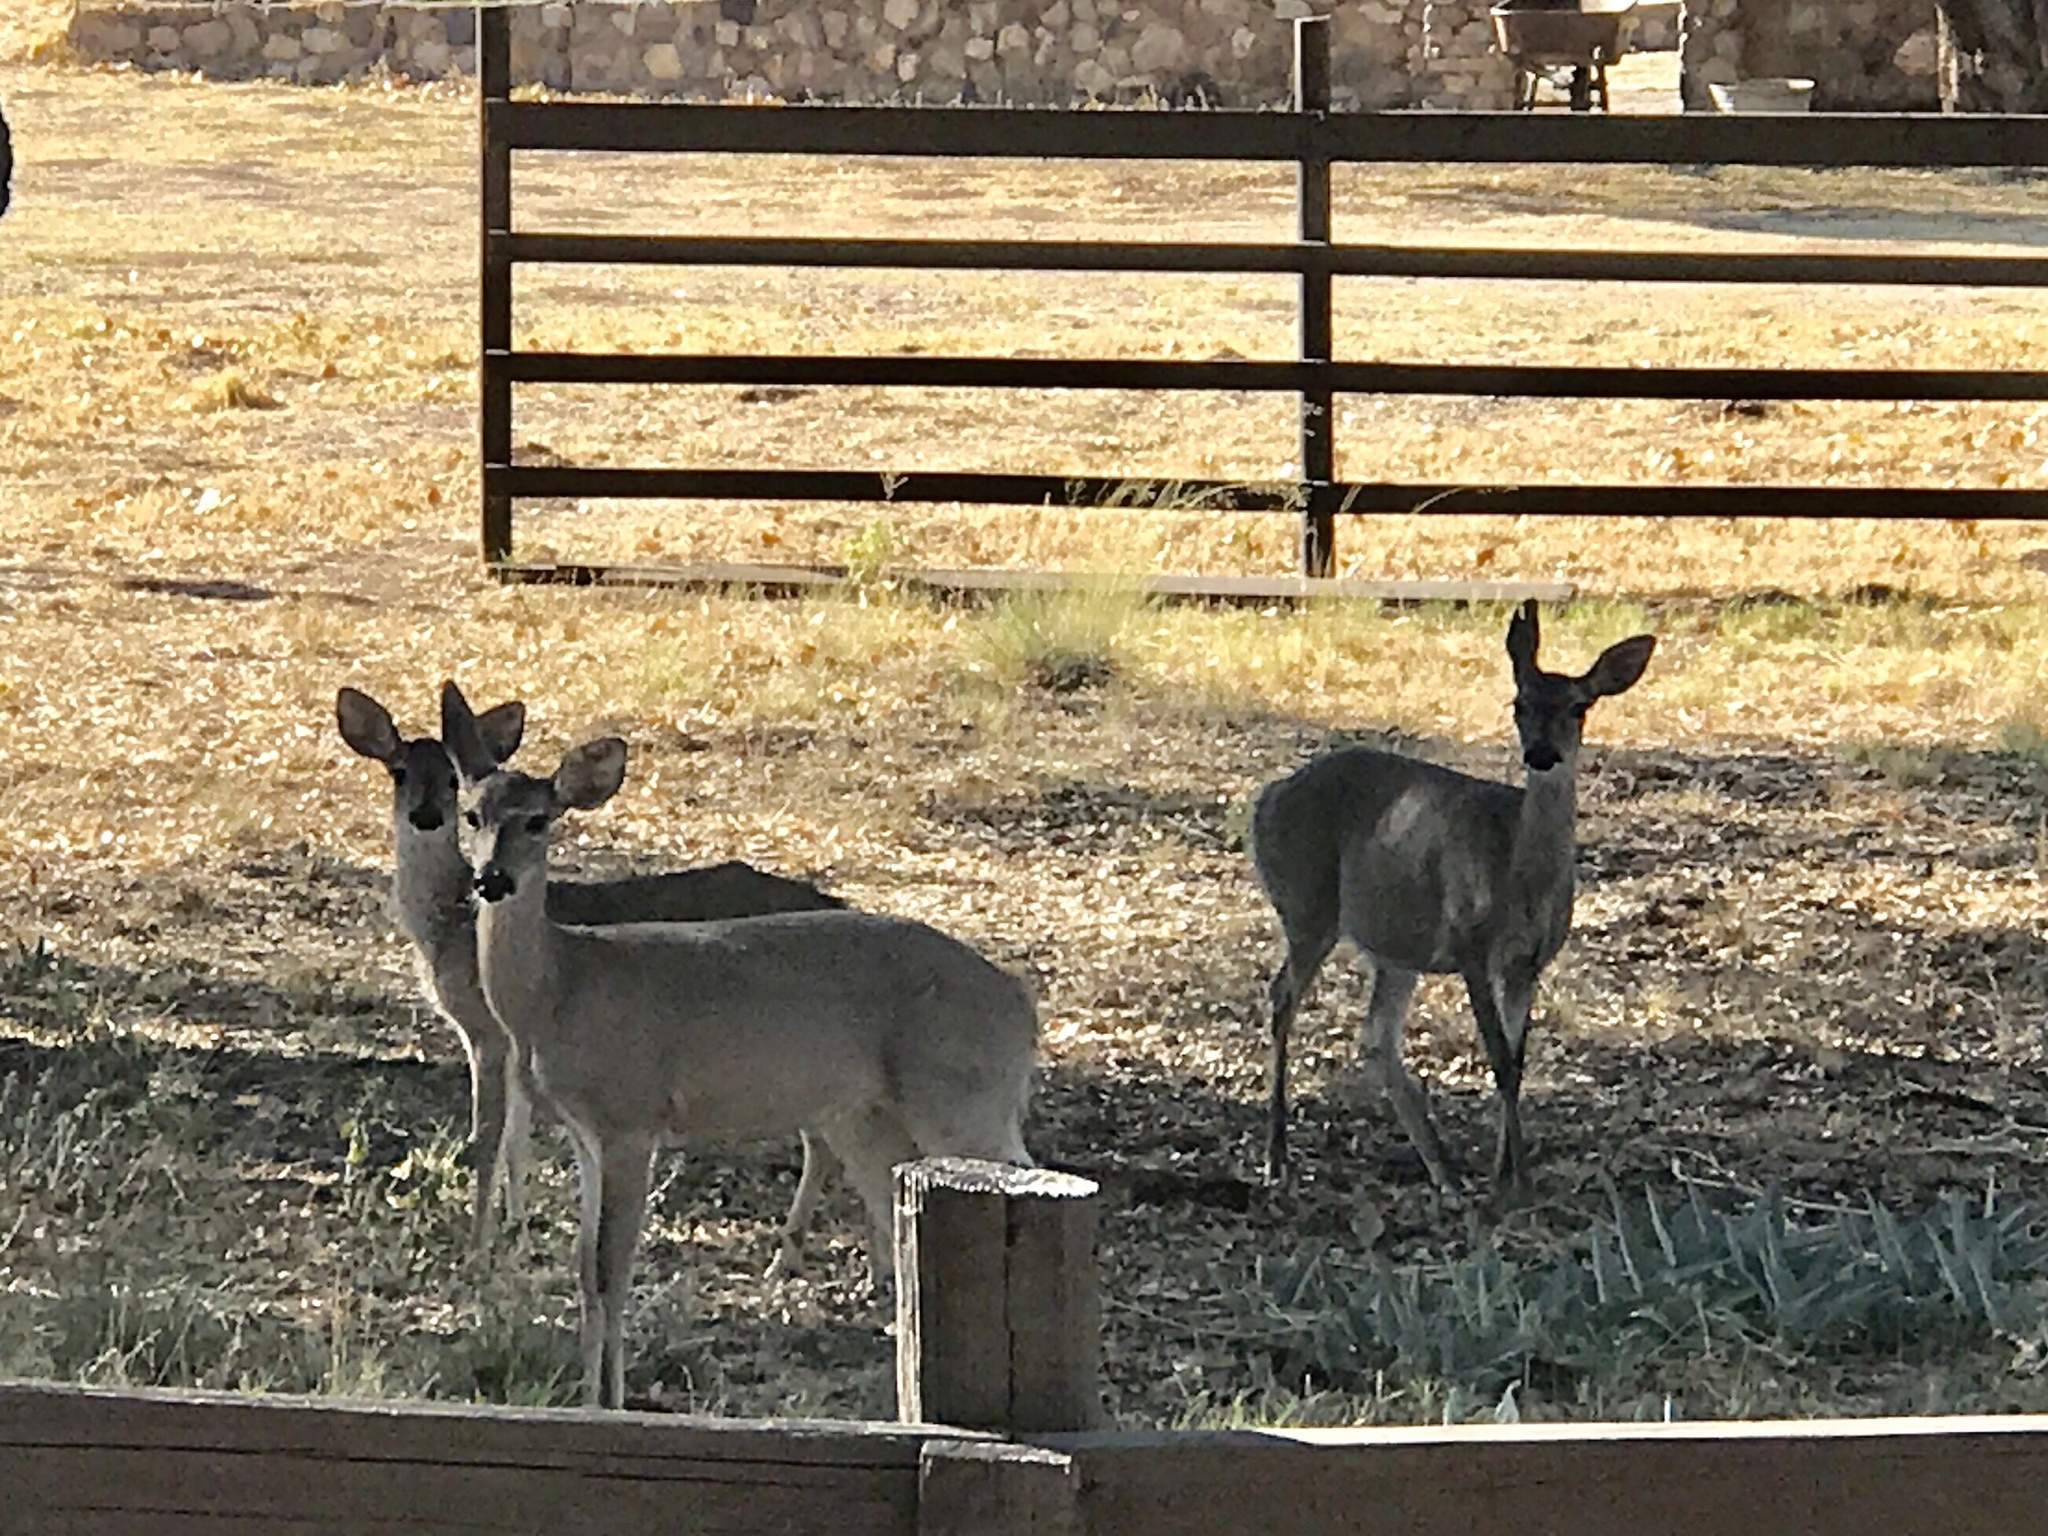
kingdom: Animalia
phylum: Chordata
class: Mammalia
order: Artiodactyla
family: Cervidae
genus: Odocoileus
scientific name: Odocoileus virginianus
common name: White-tailed deer
